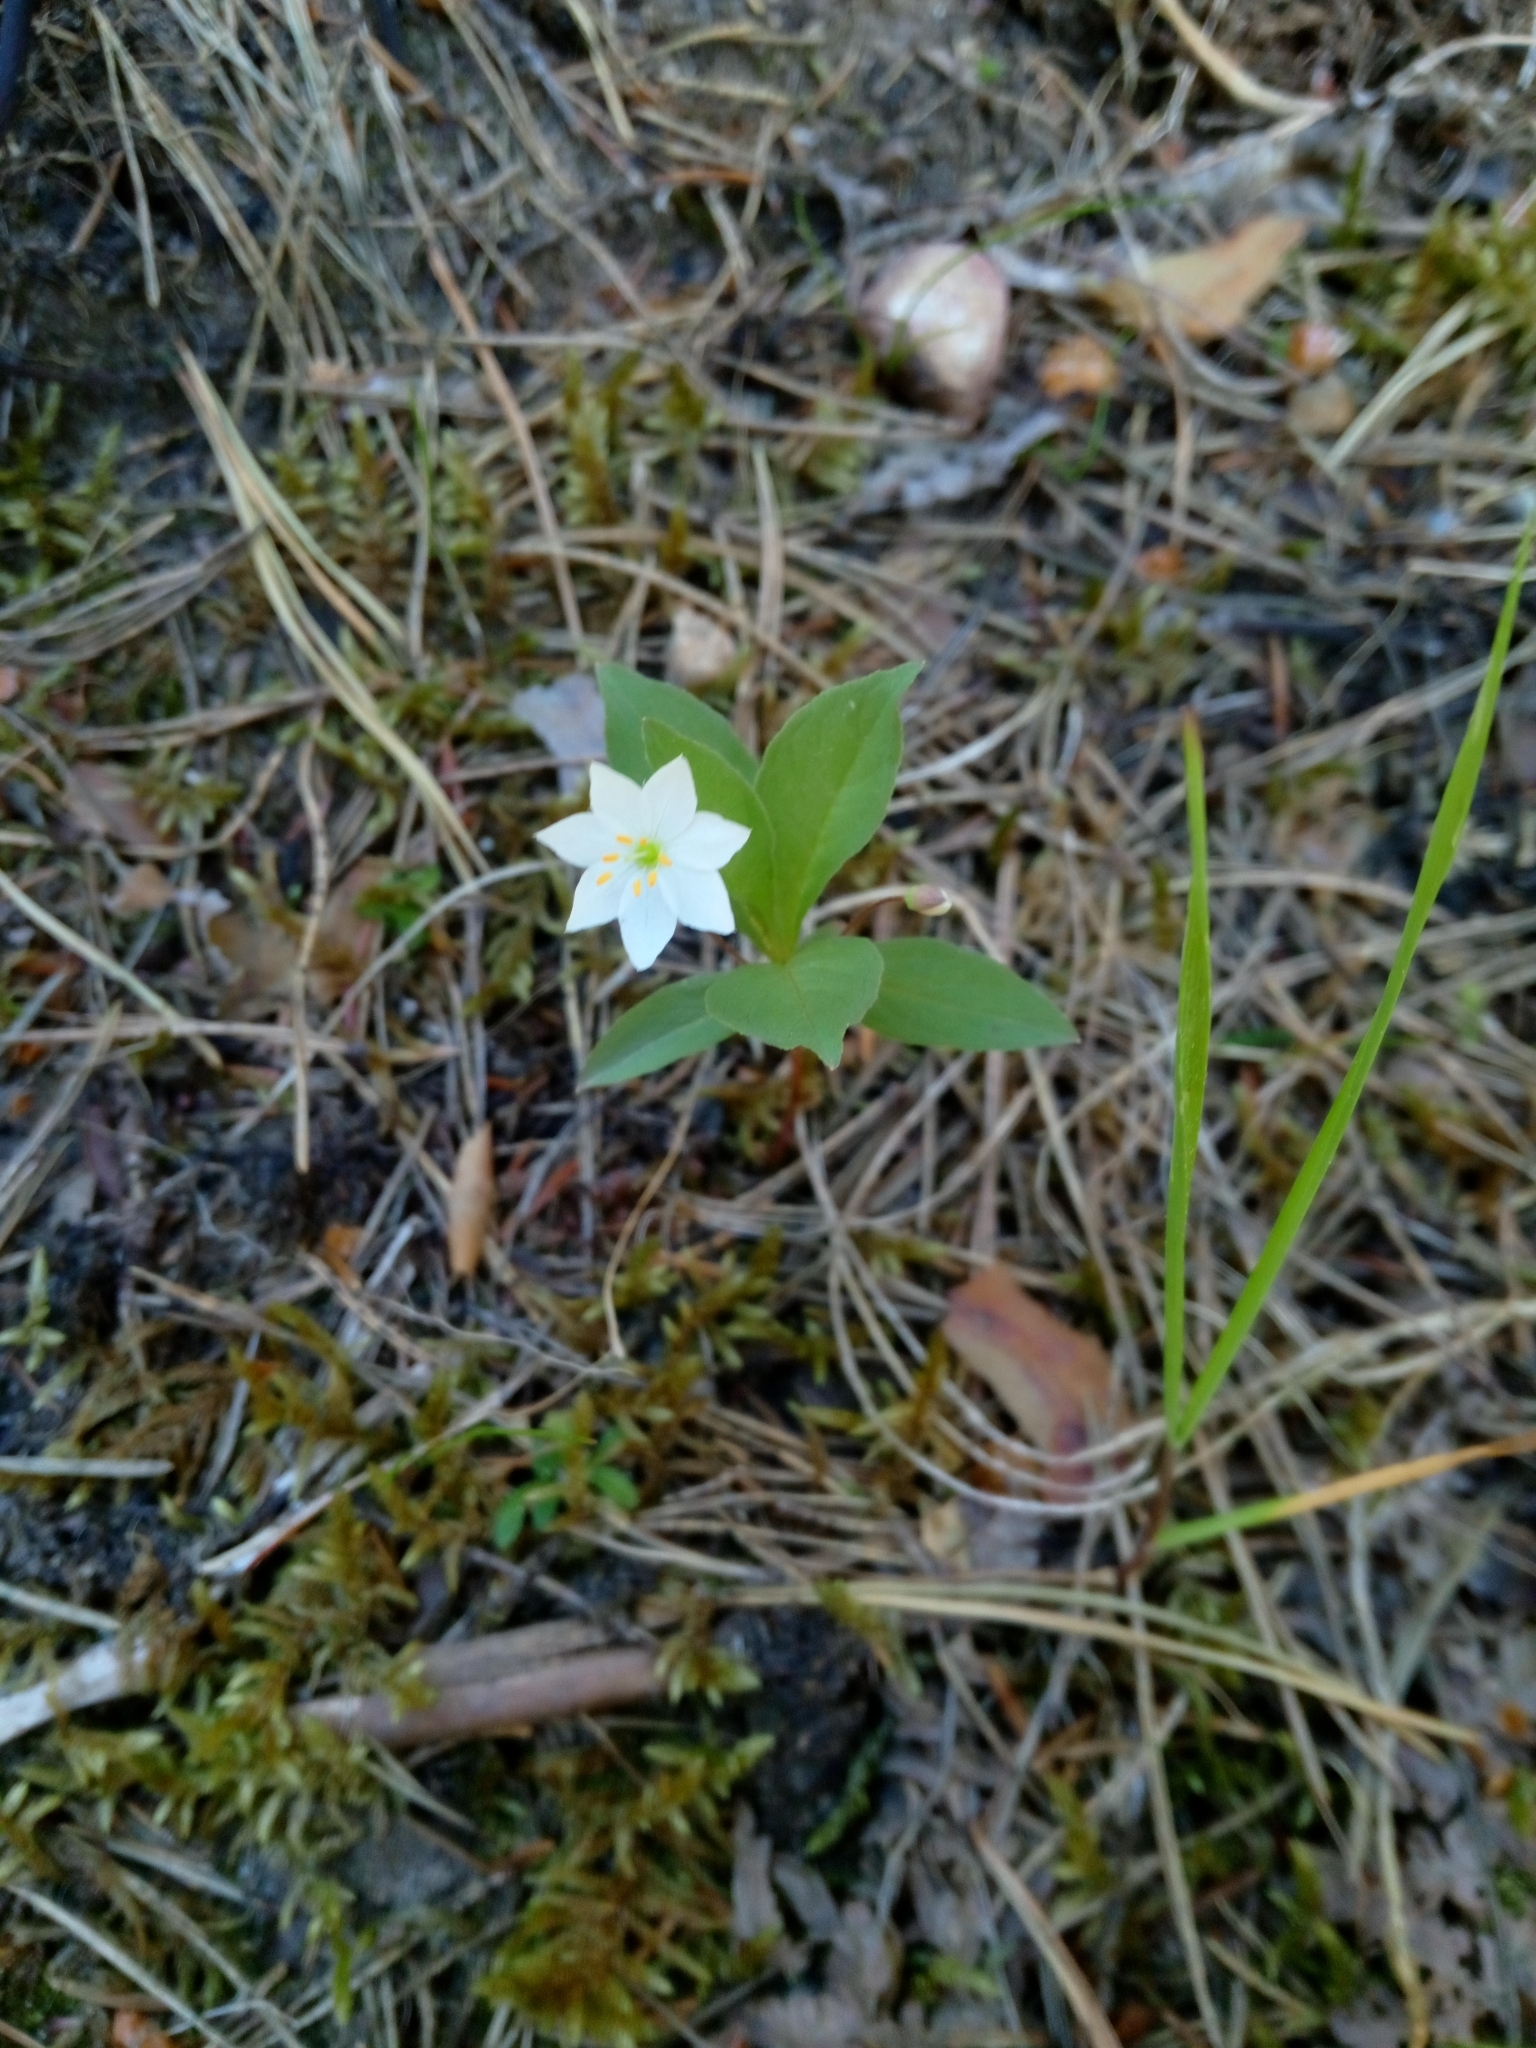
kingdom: Plantae
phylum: Tracheophyta
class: Magnoliopsida
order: Ericales
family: Primulaceae
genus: Lysimachia
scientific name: Lysimachia europaea
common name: Arctic starflower
